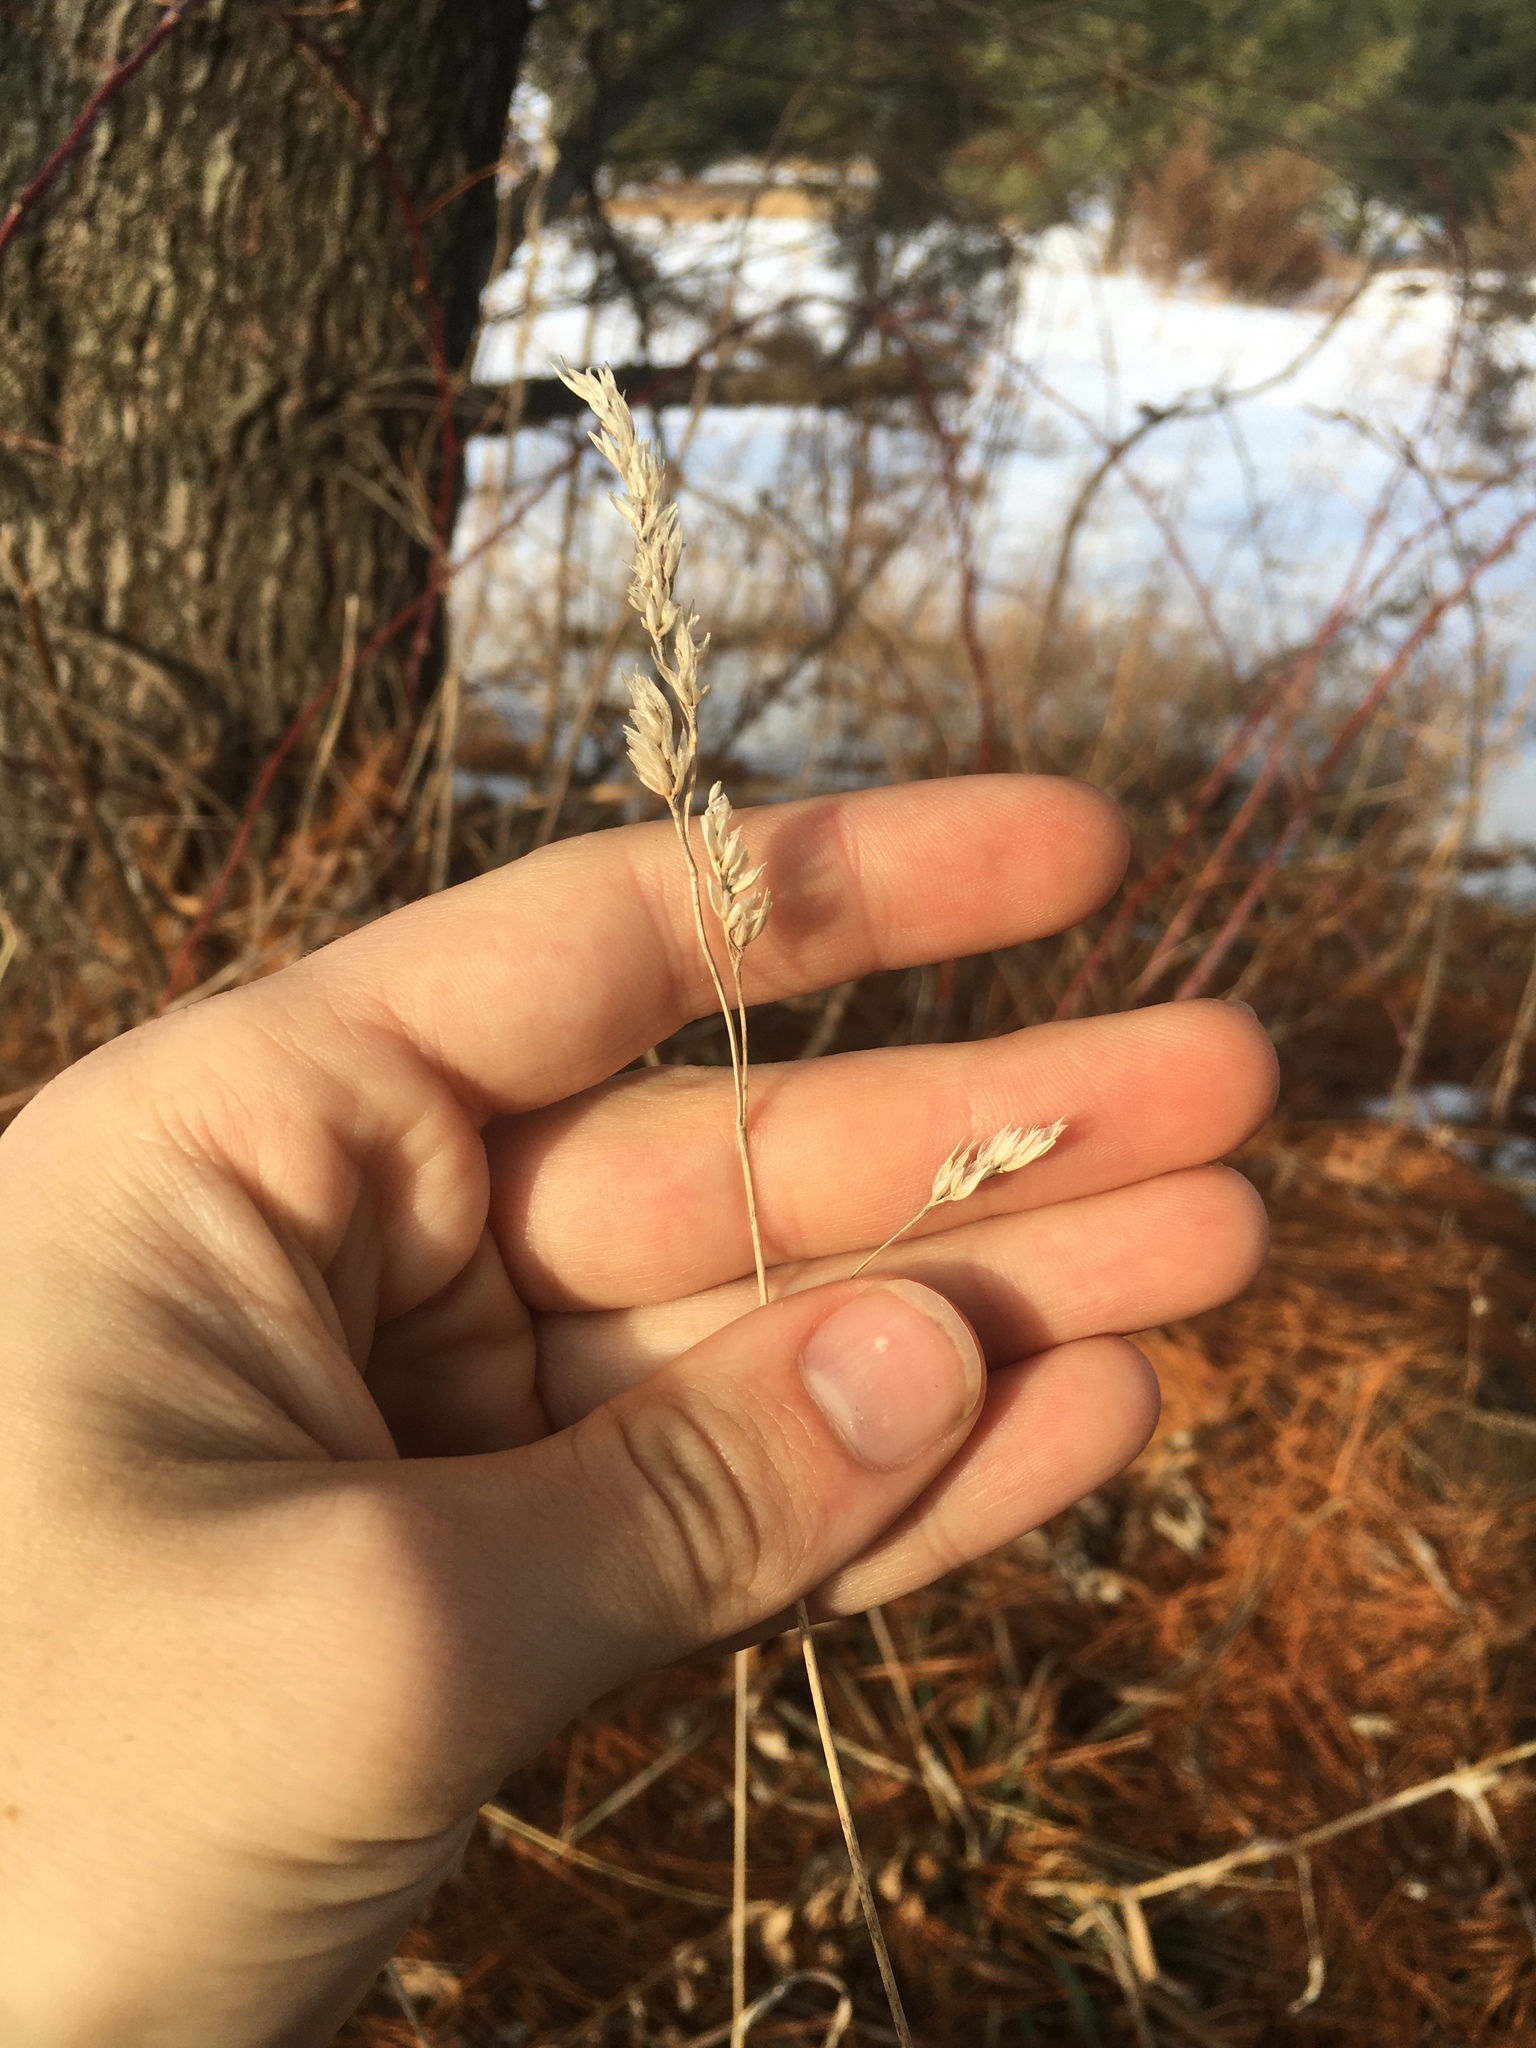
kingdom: Plantae
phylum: Tracheophyta
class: Liliopsida
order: Poales
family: Poaceae
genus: Dactylis
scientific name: Dactylis glomerata
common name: Orchardgrass
